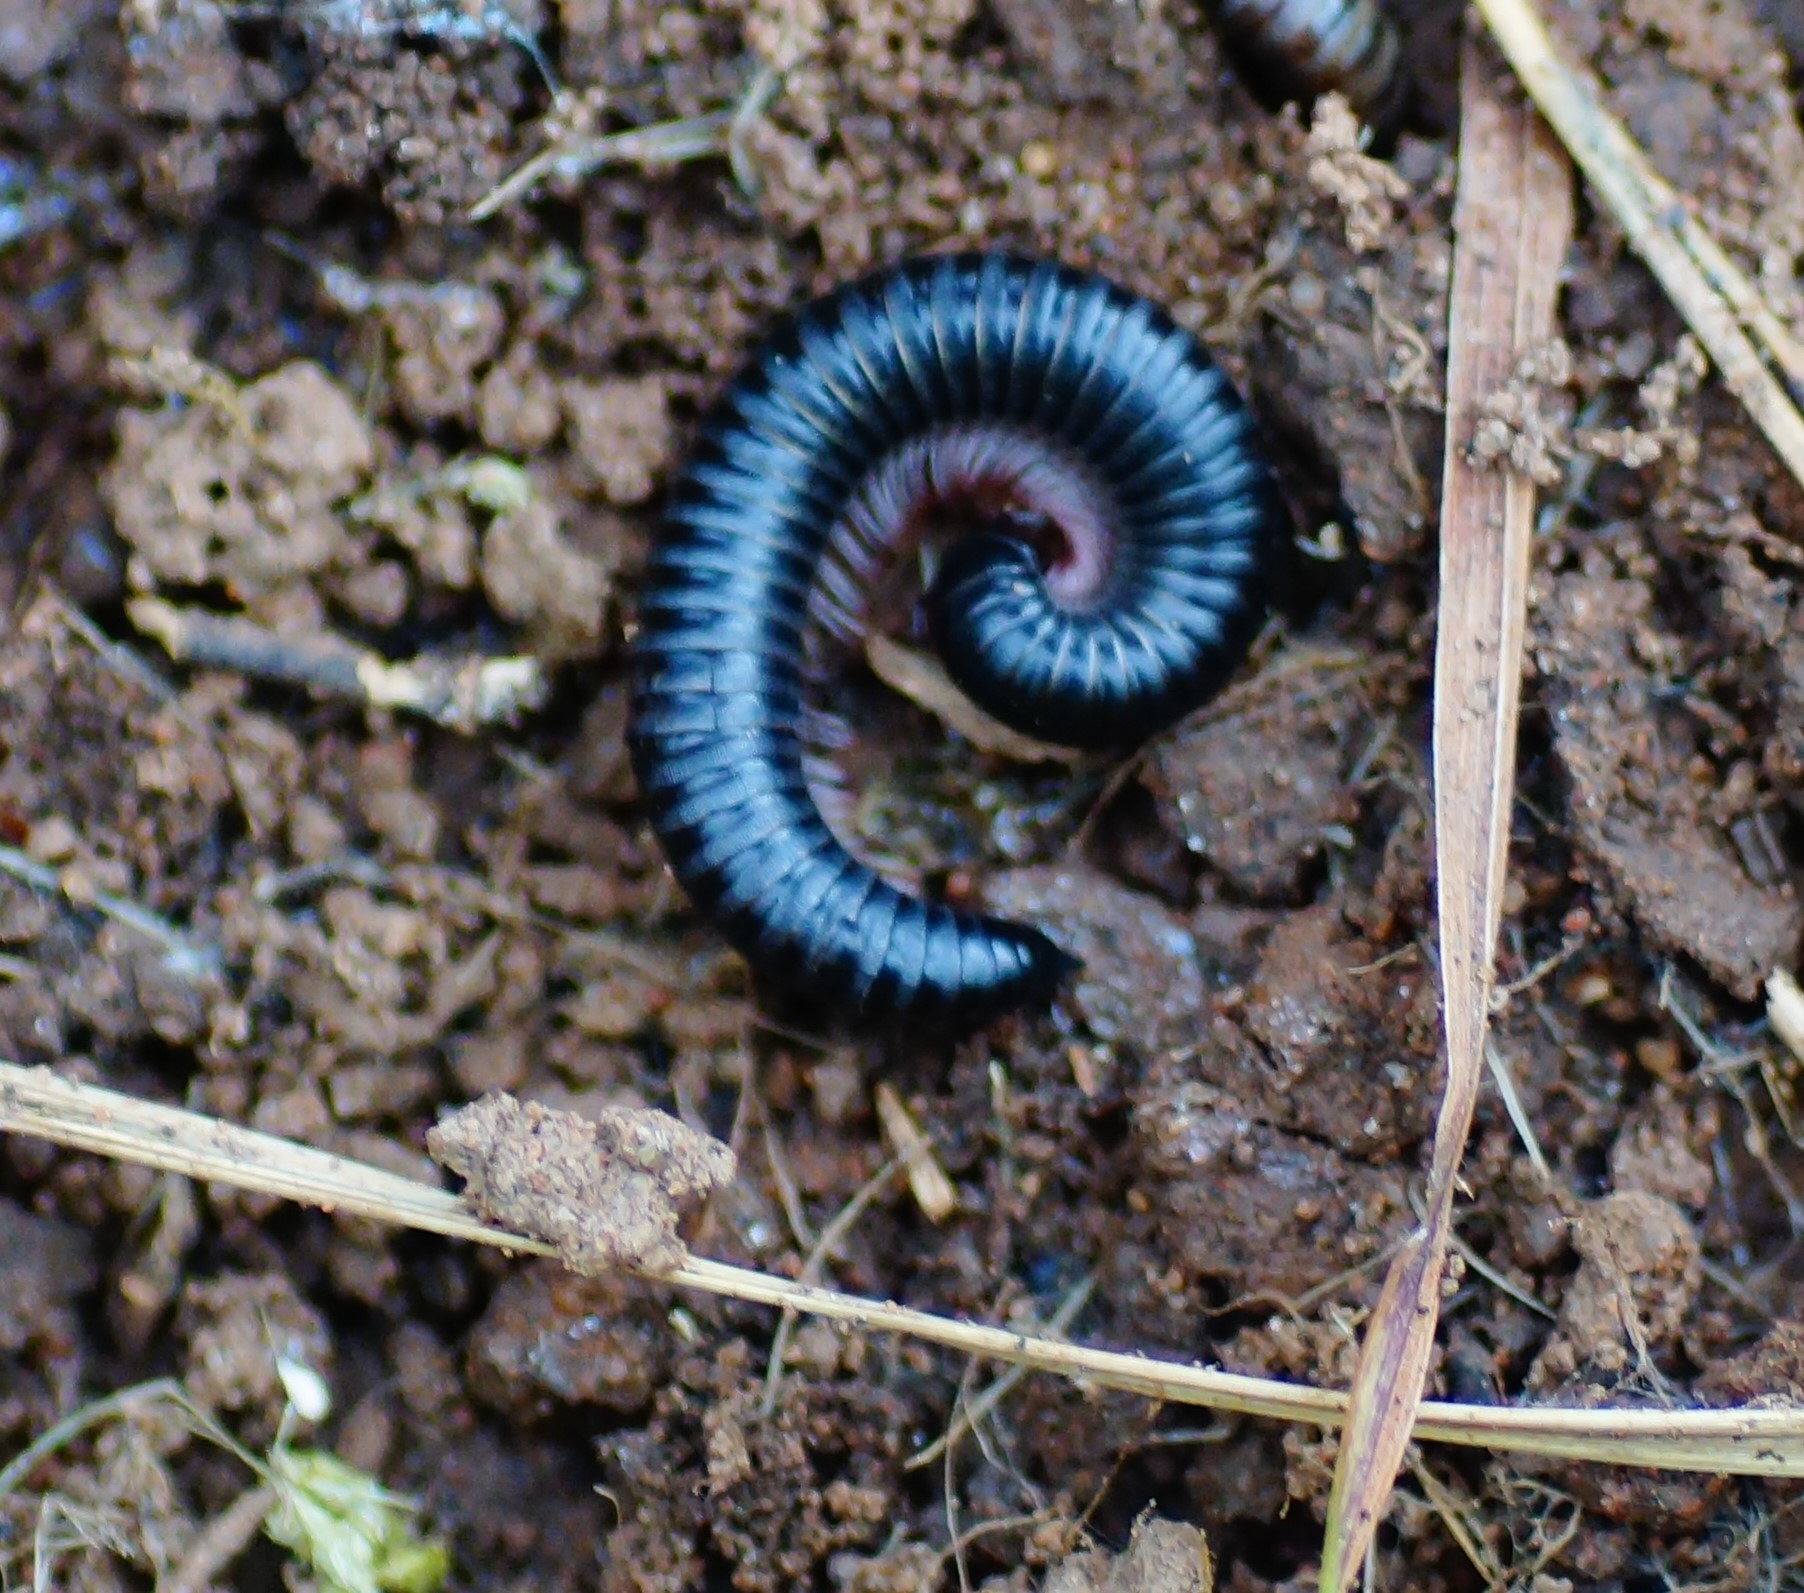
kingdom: Animalia
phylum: Arthropoda
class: Diplopoda
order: Julida
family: Julidae
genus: Ommatoiulus
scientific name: Ommatoiulus moreleti
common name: Portuguese millipede
